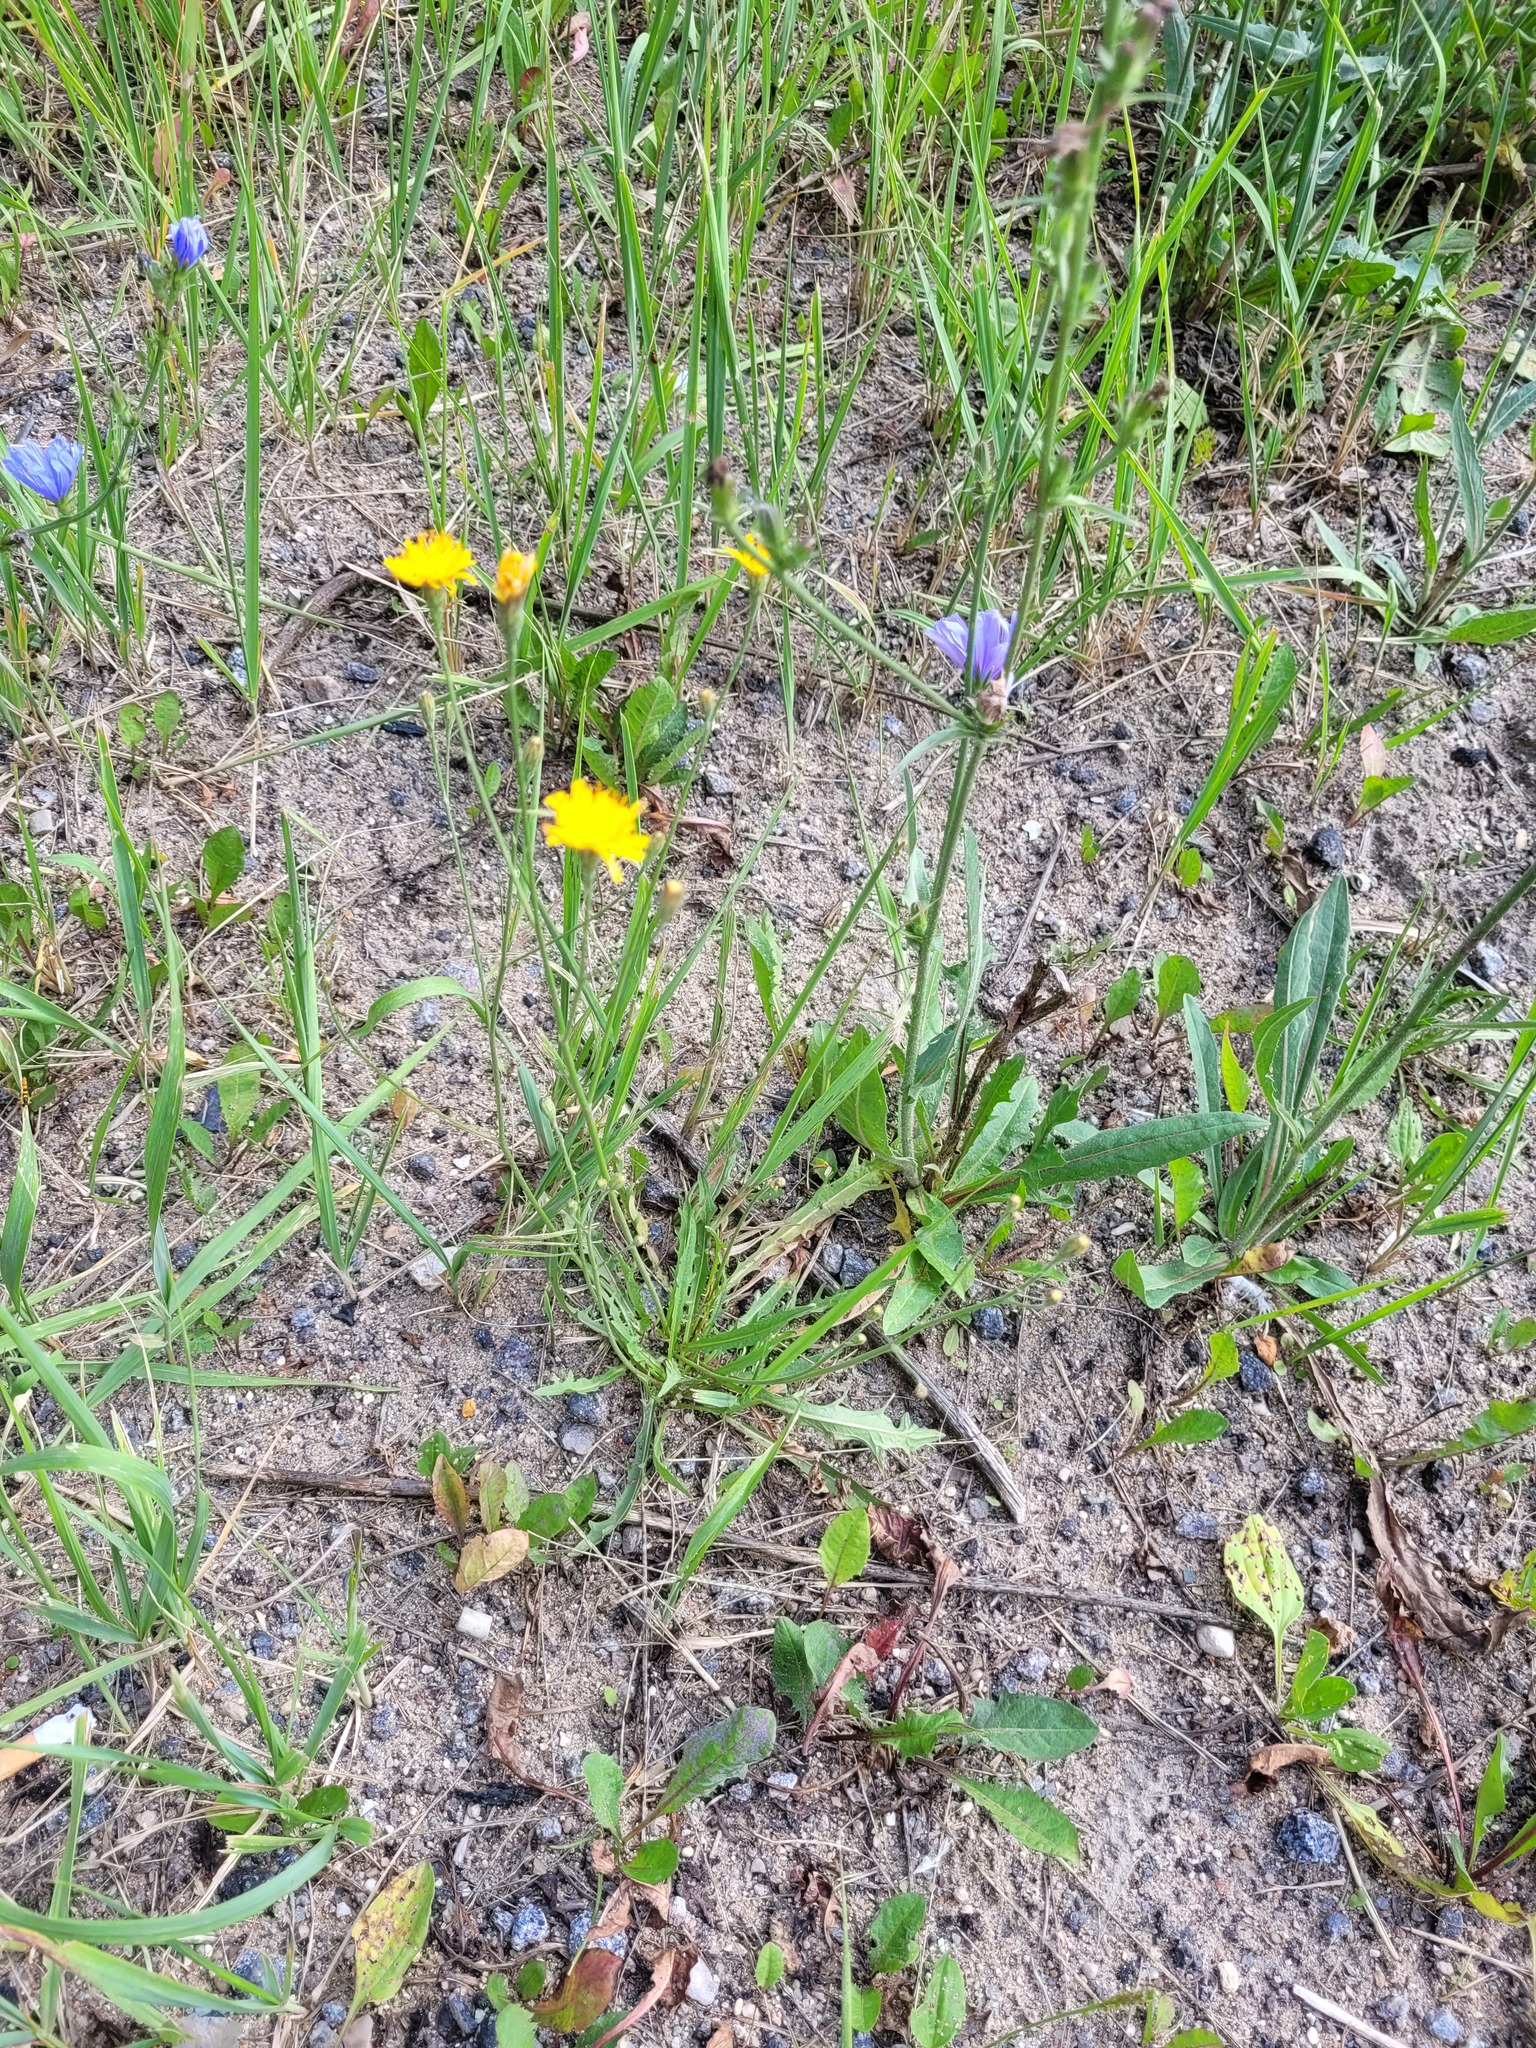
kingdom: Plantae
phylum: Tracheophyta
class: Magnoliopsida
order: Asterales
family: Asteraceae
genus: Scorzoneroides
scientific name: Scorzoneroides autumnalis
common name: Autumn hawkbit
